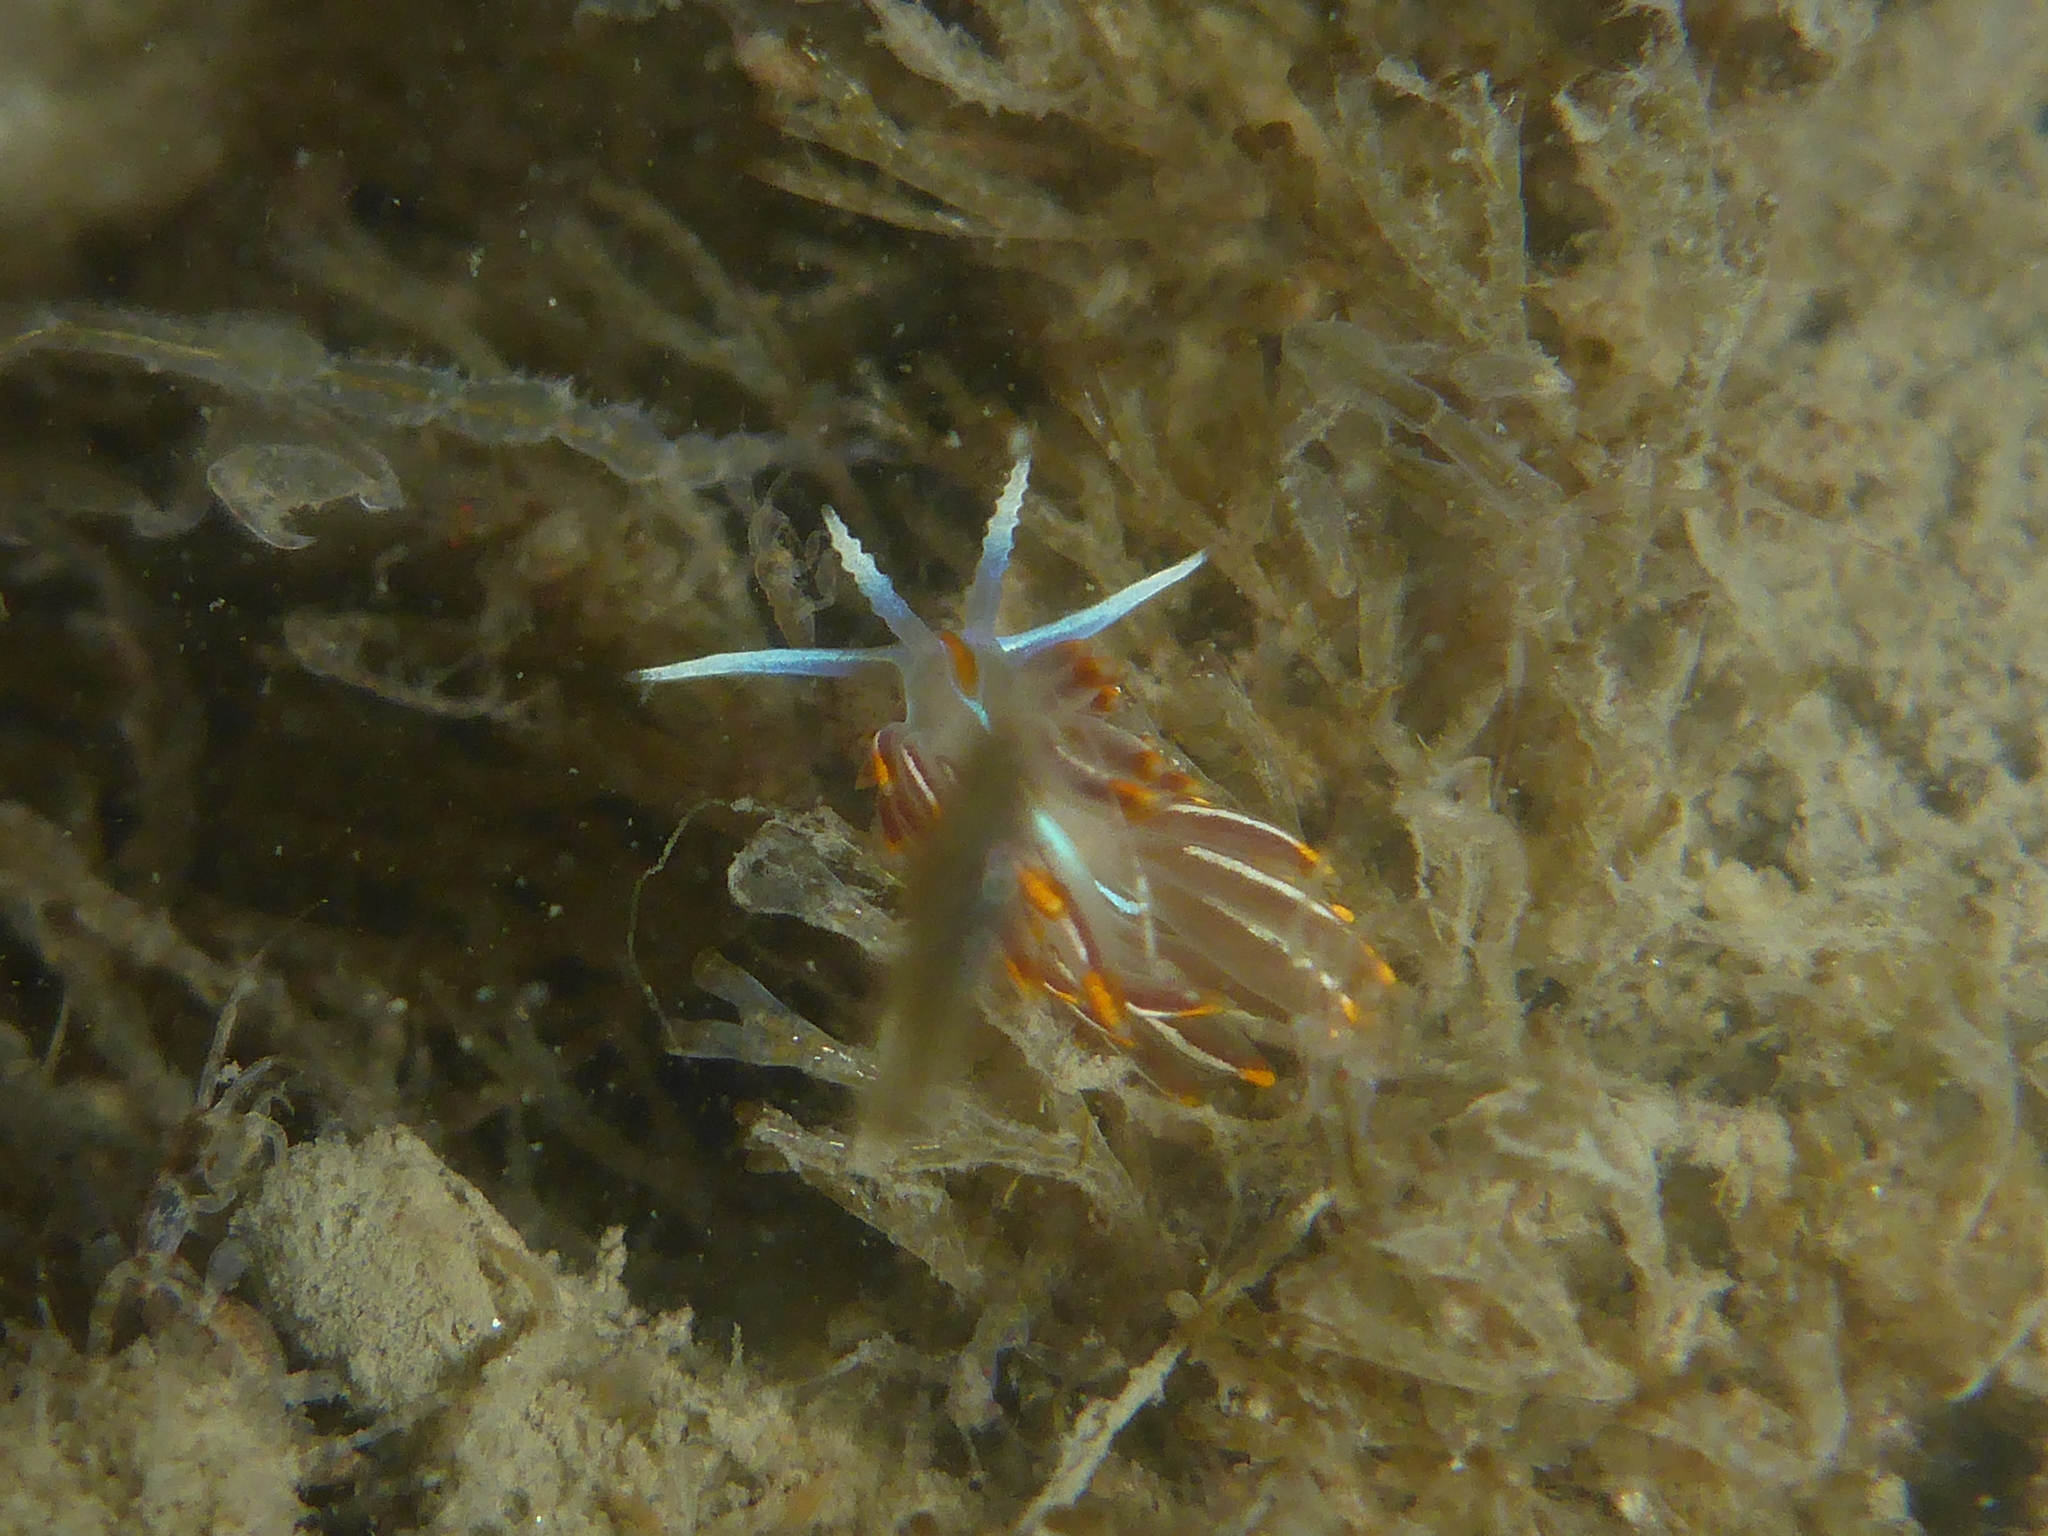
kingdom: Animalia
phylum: Mollusca
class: Gastropoda
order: Nudibranchia
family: Myrrhinidae
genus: Hermissenda
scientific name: Hermissenda crassicornis
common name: Hermissenda
